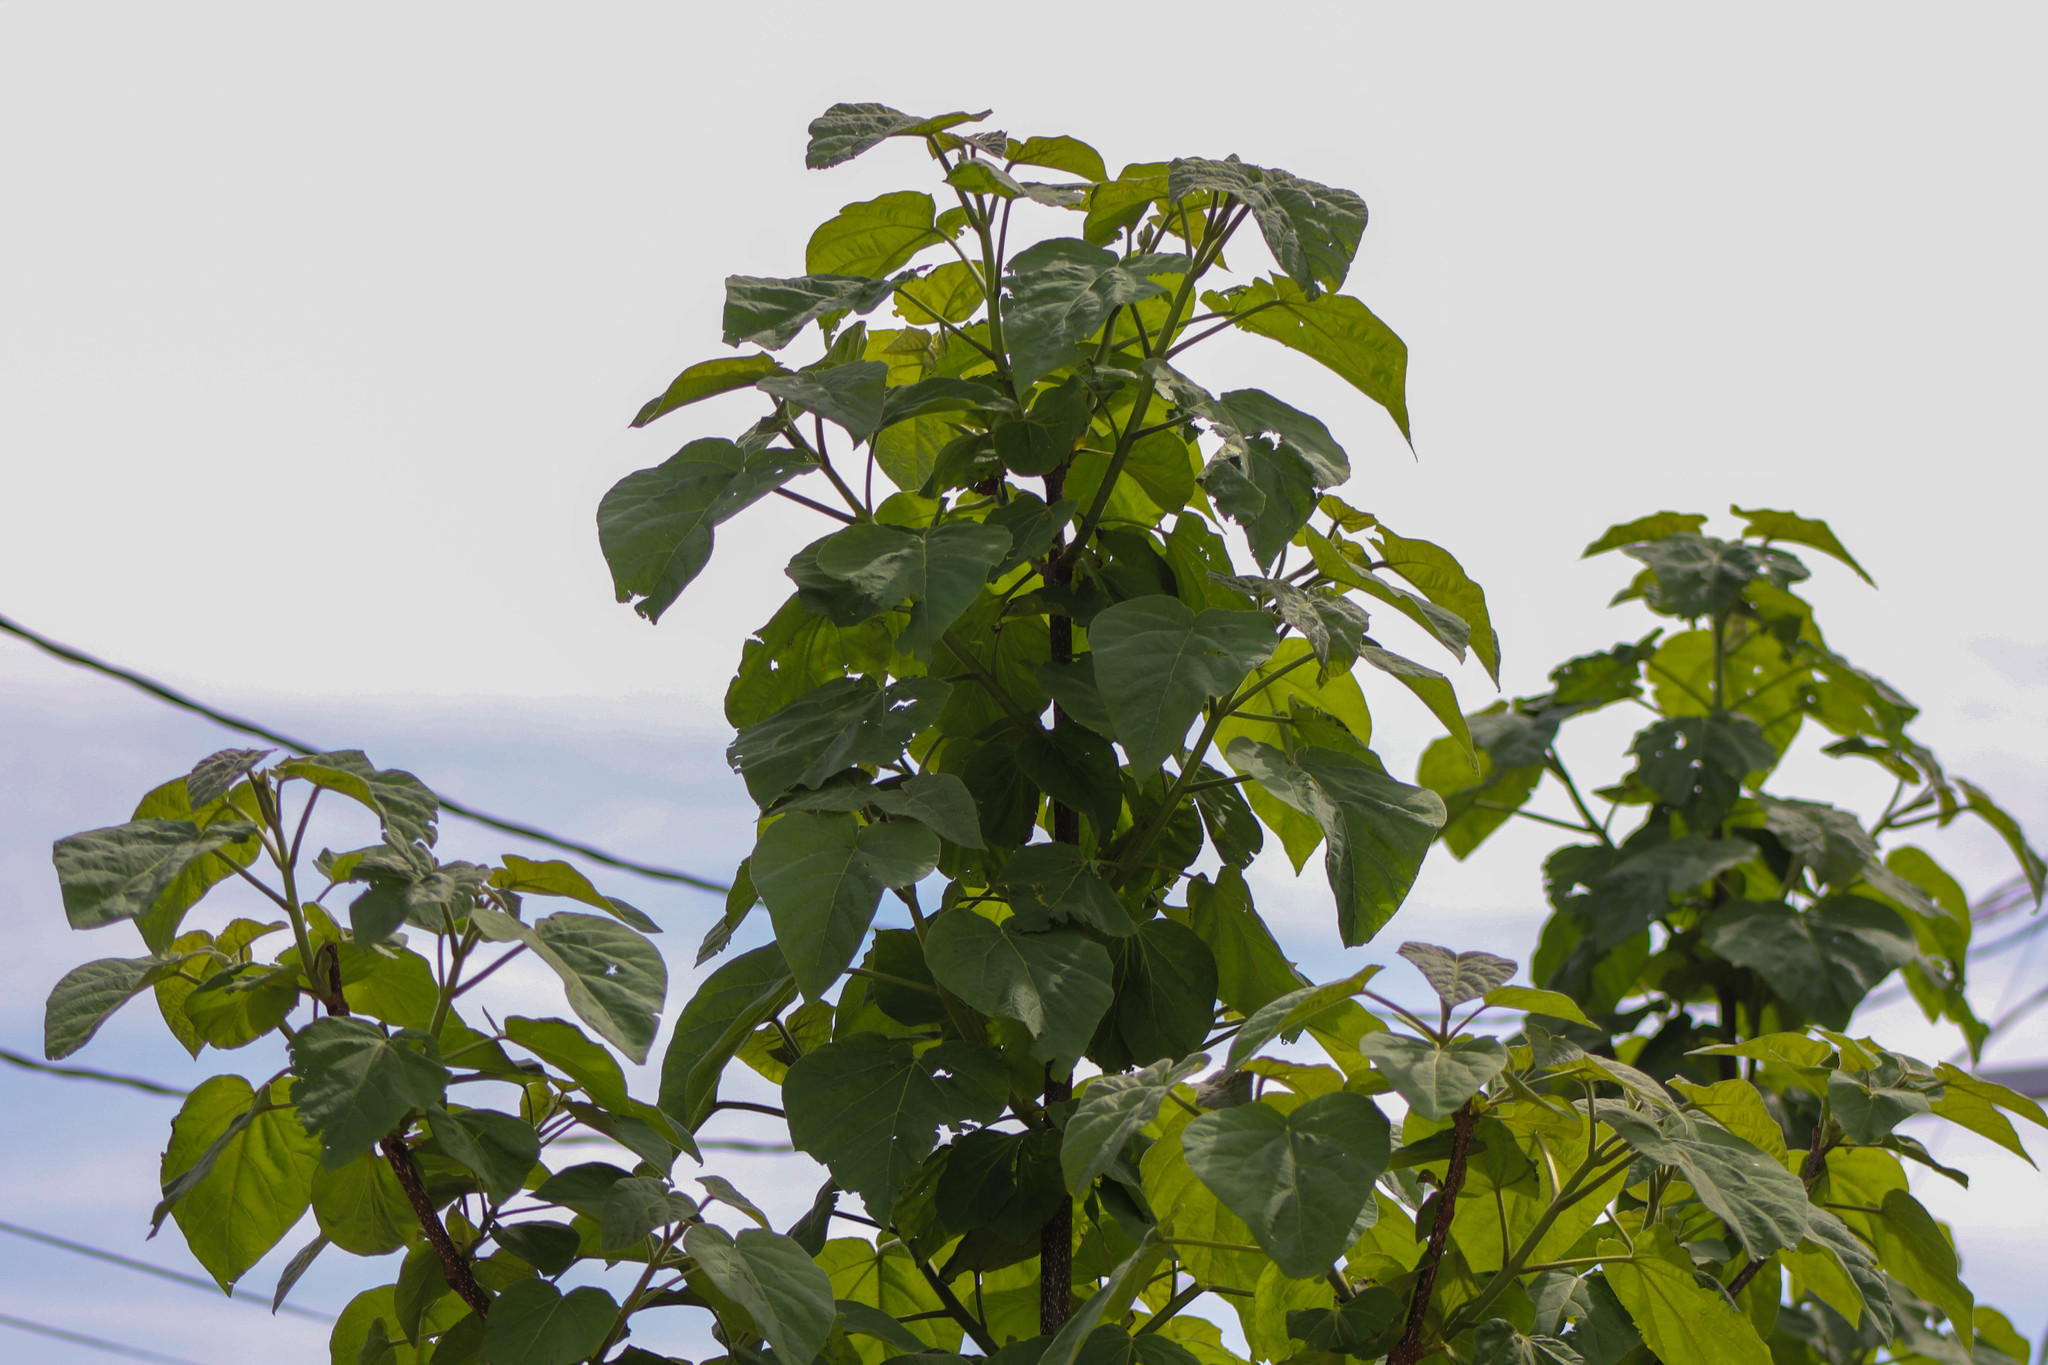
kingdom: Plantae
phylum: Tracheophyta
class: Magnoliopsida
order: Lamiales
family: Paulowniaceae
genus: Paulownia
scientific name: Paulownia tomentosa
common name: Foxglove-tree
